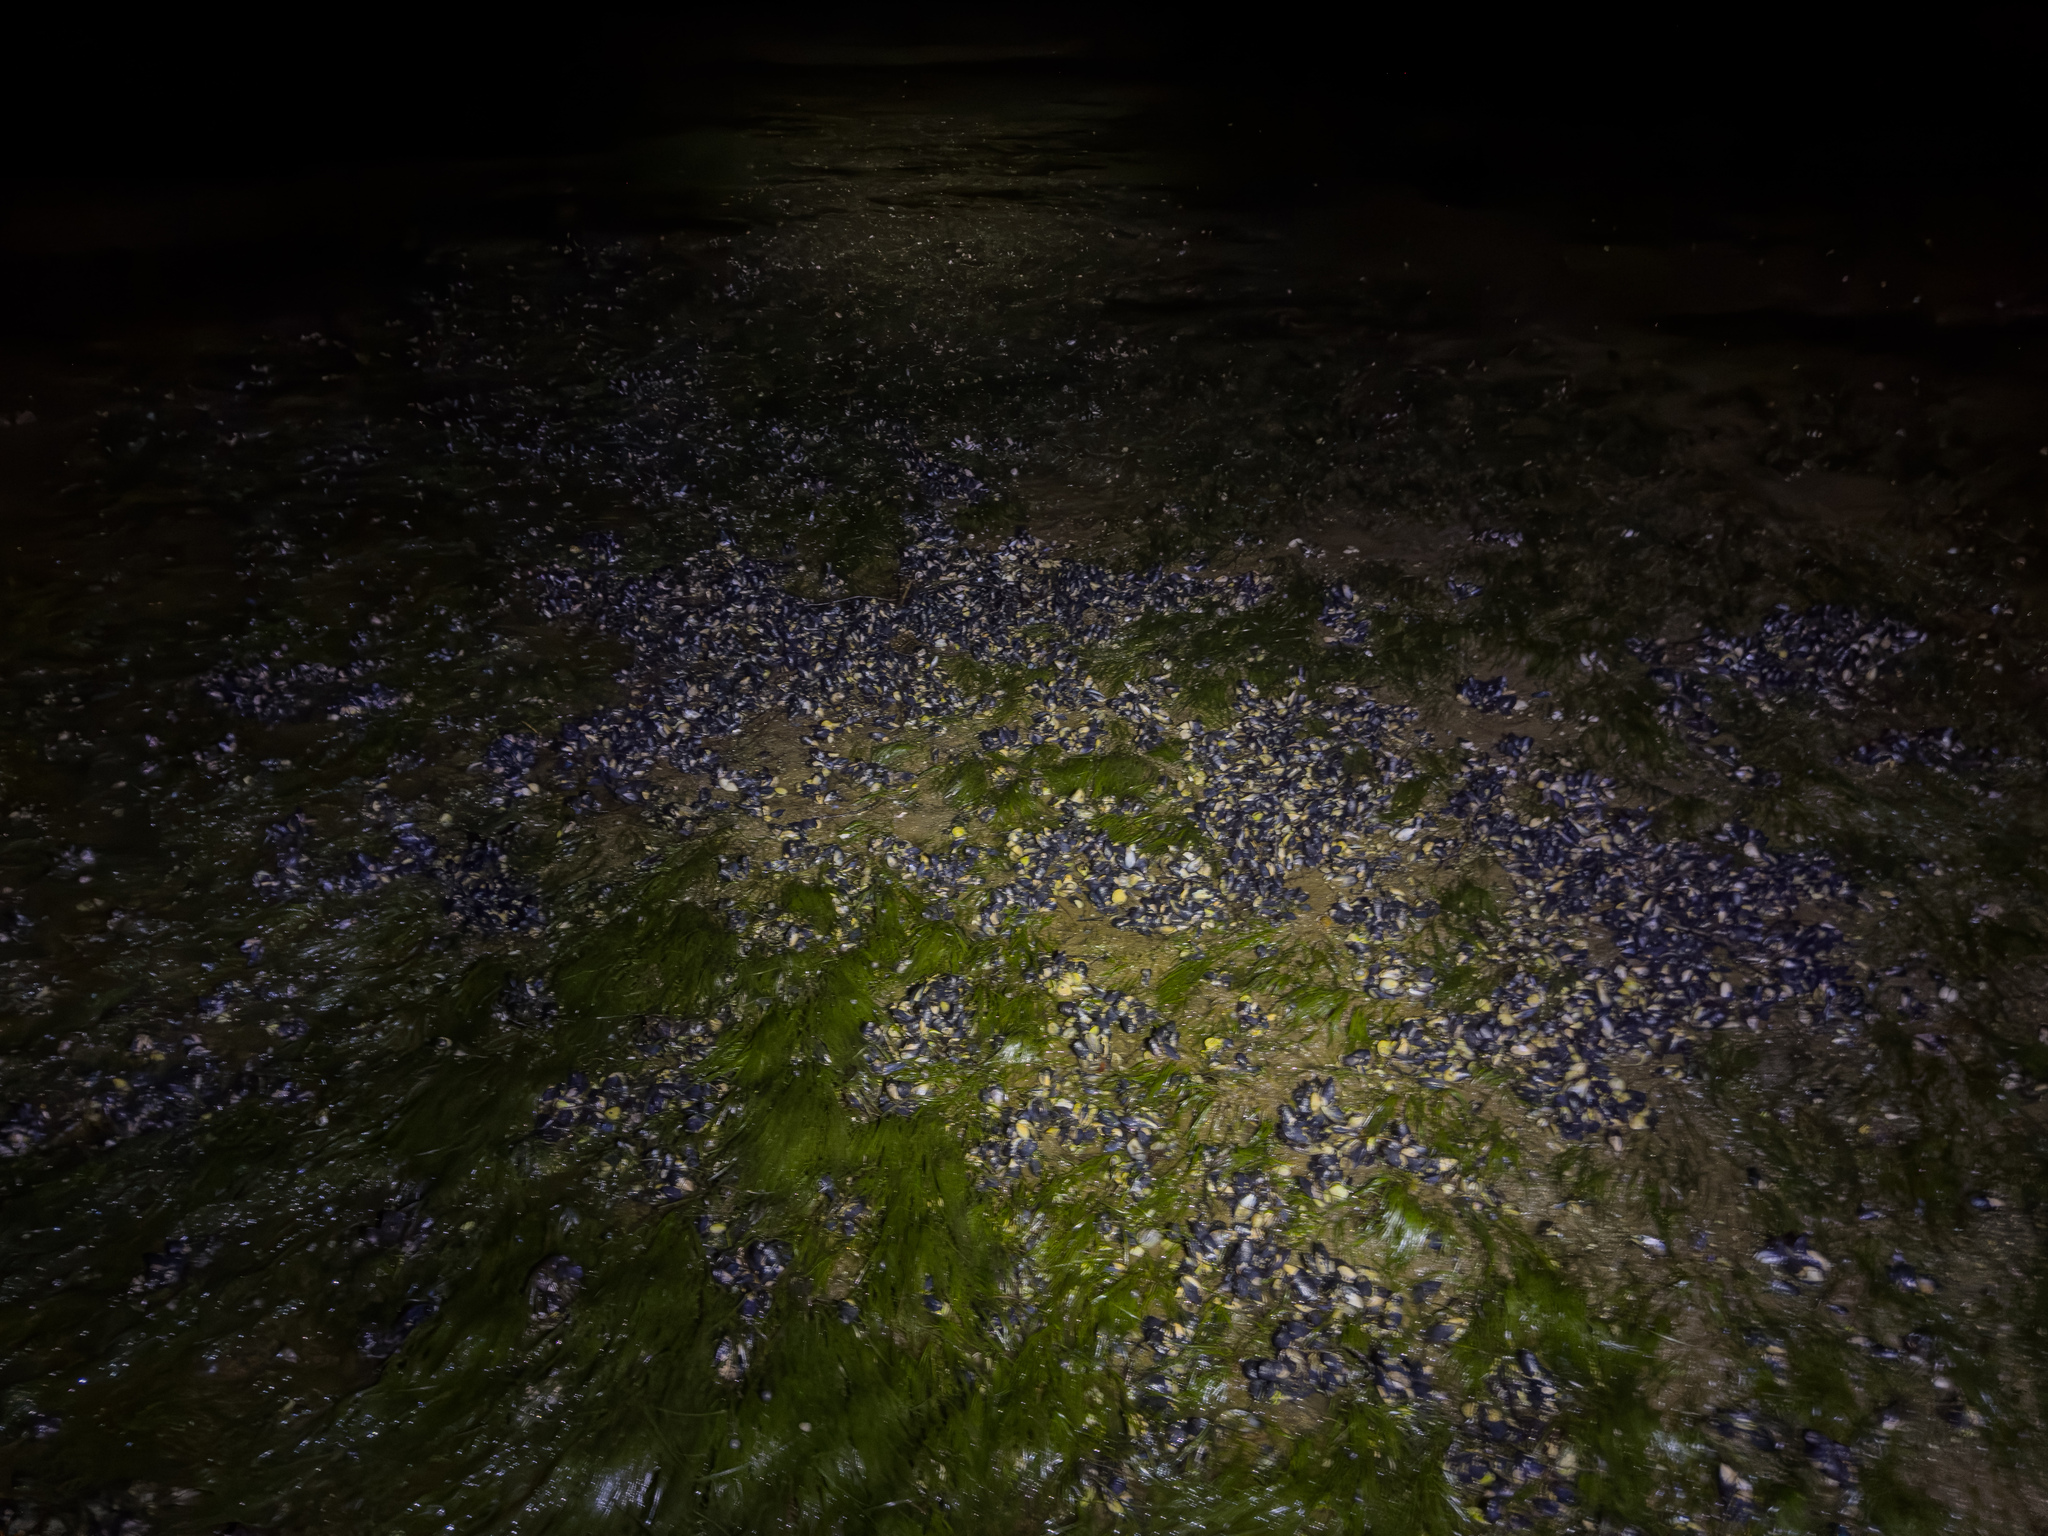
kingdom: Animalia
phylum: Mollusca
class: Bivalvia
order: Mytilida
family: Mytilidae
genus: Mytilus
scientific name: Mytilus planulatus
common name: Australian mussel
